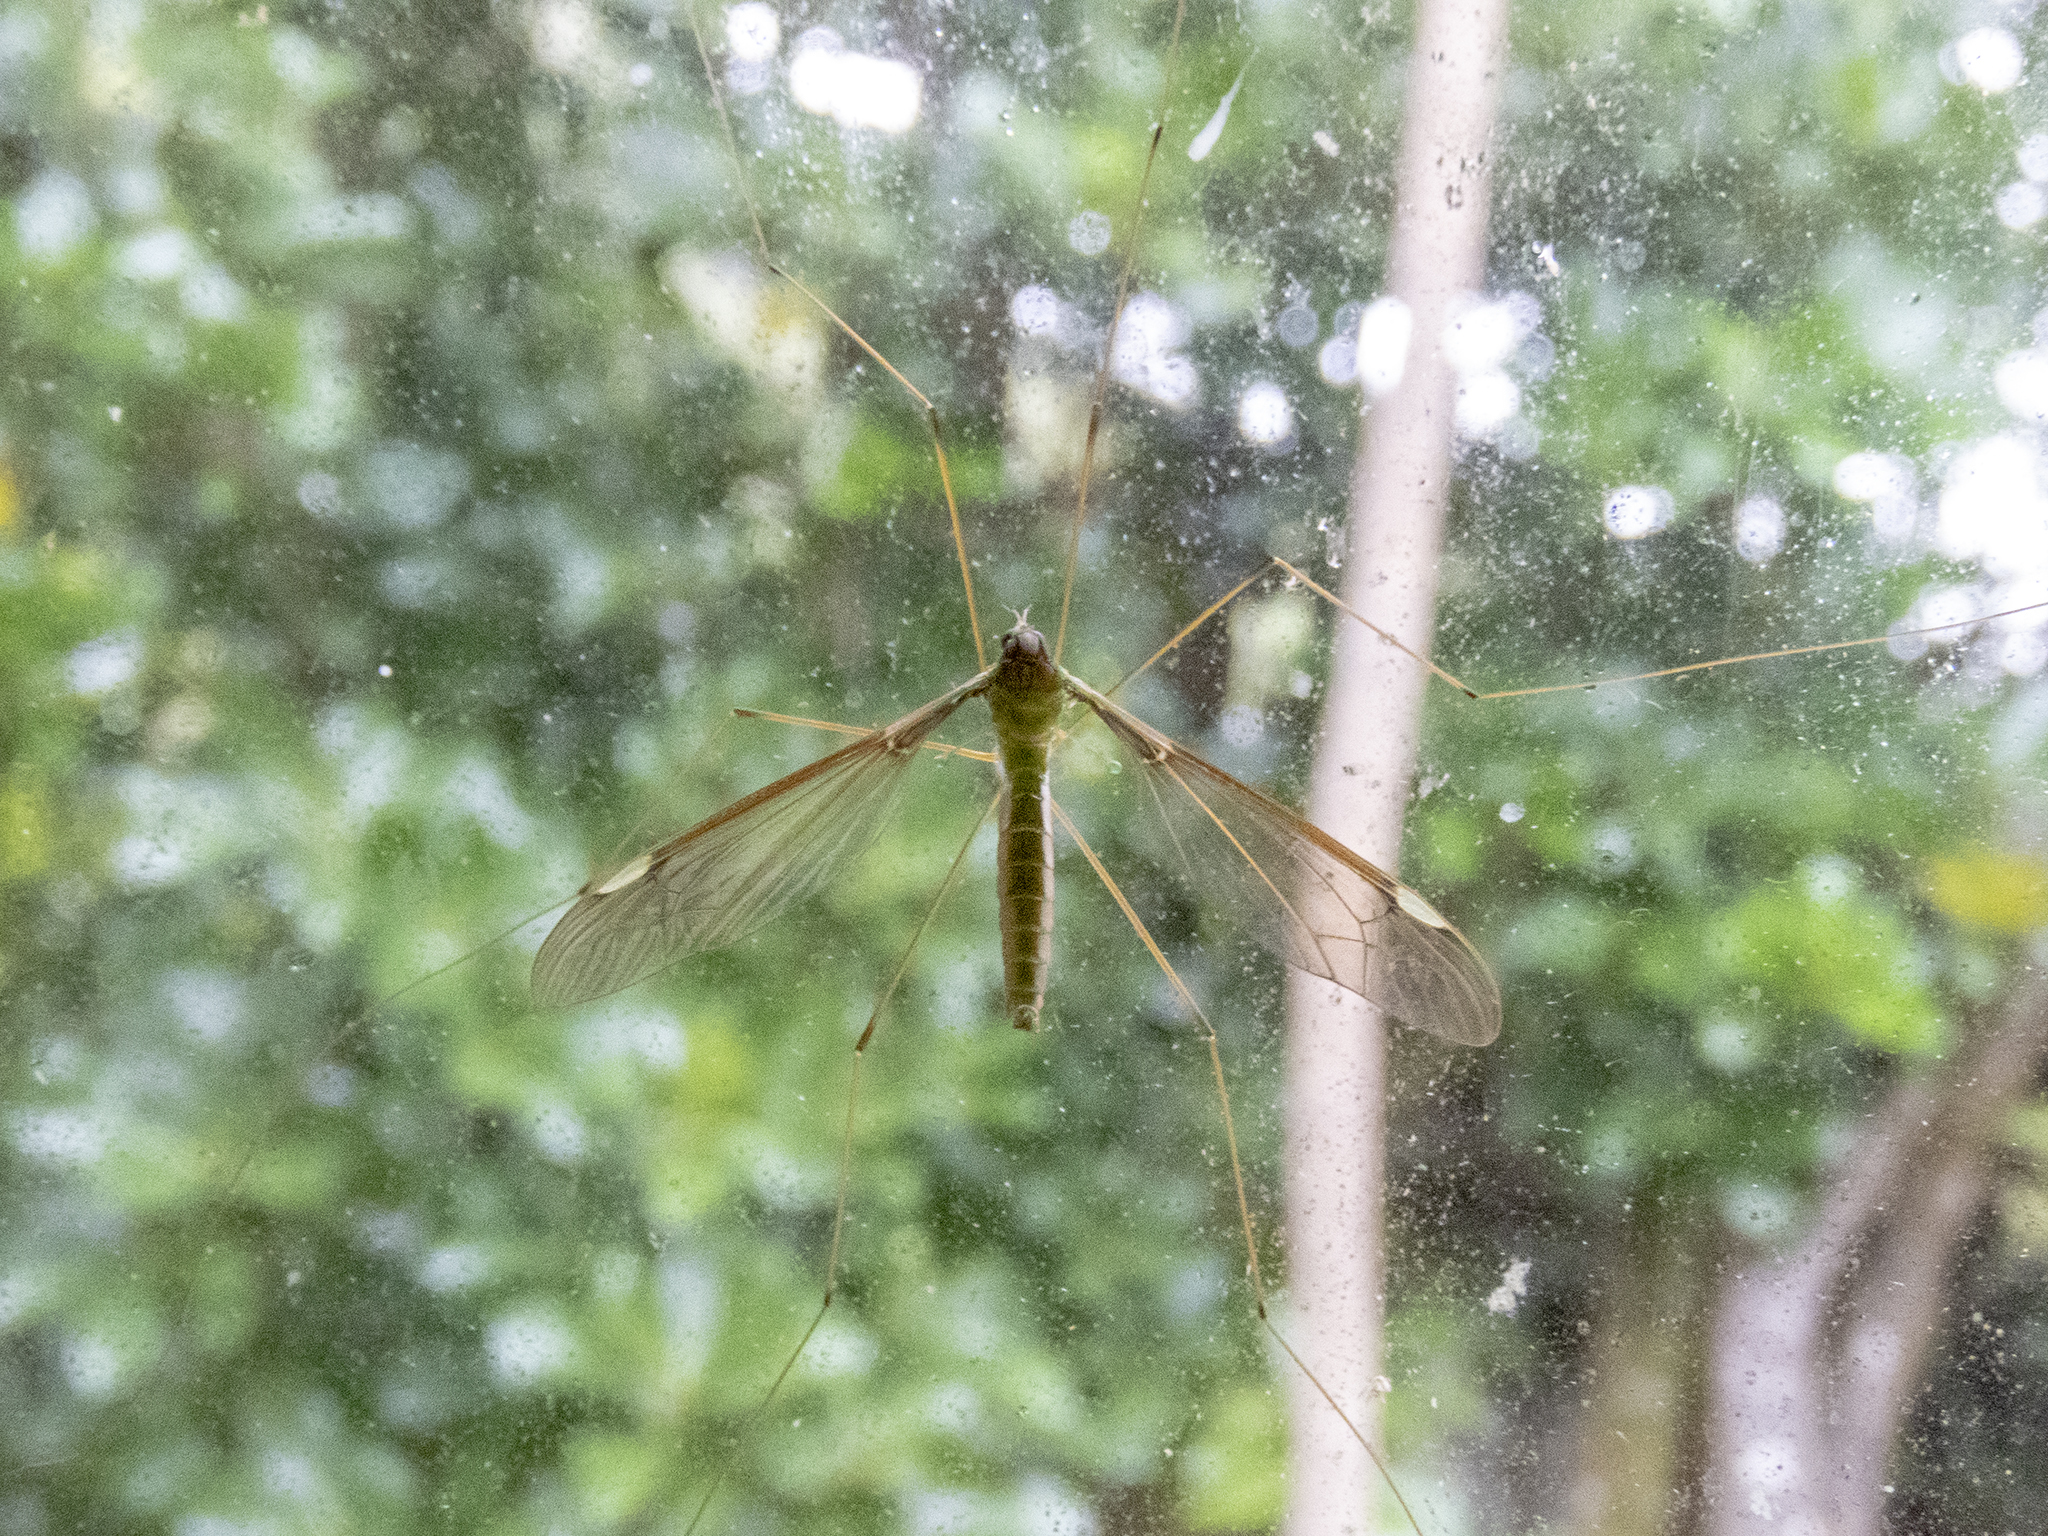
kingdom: Animalia
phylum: Arthropoda
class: Insecta
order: Diptera
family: Tipulidae
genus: Leptotarsus
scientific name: Leptotarsus albistigma
